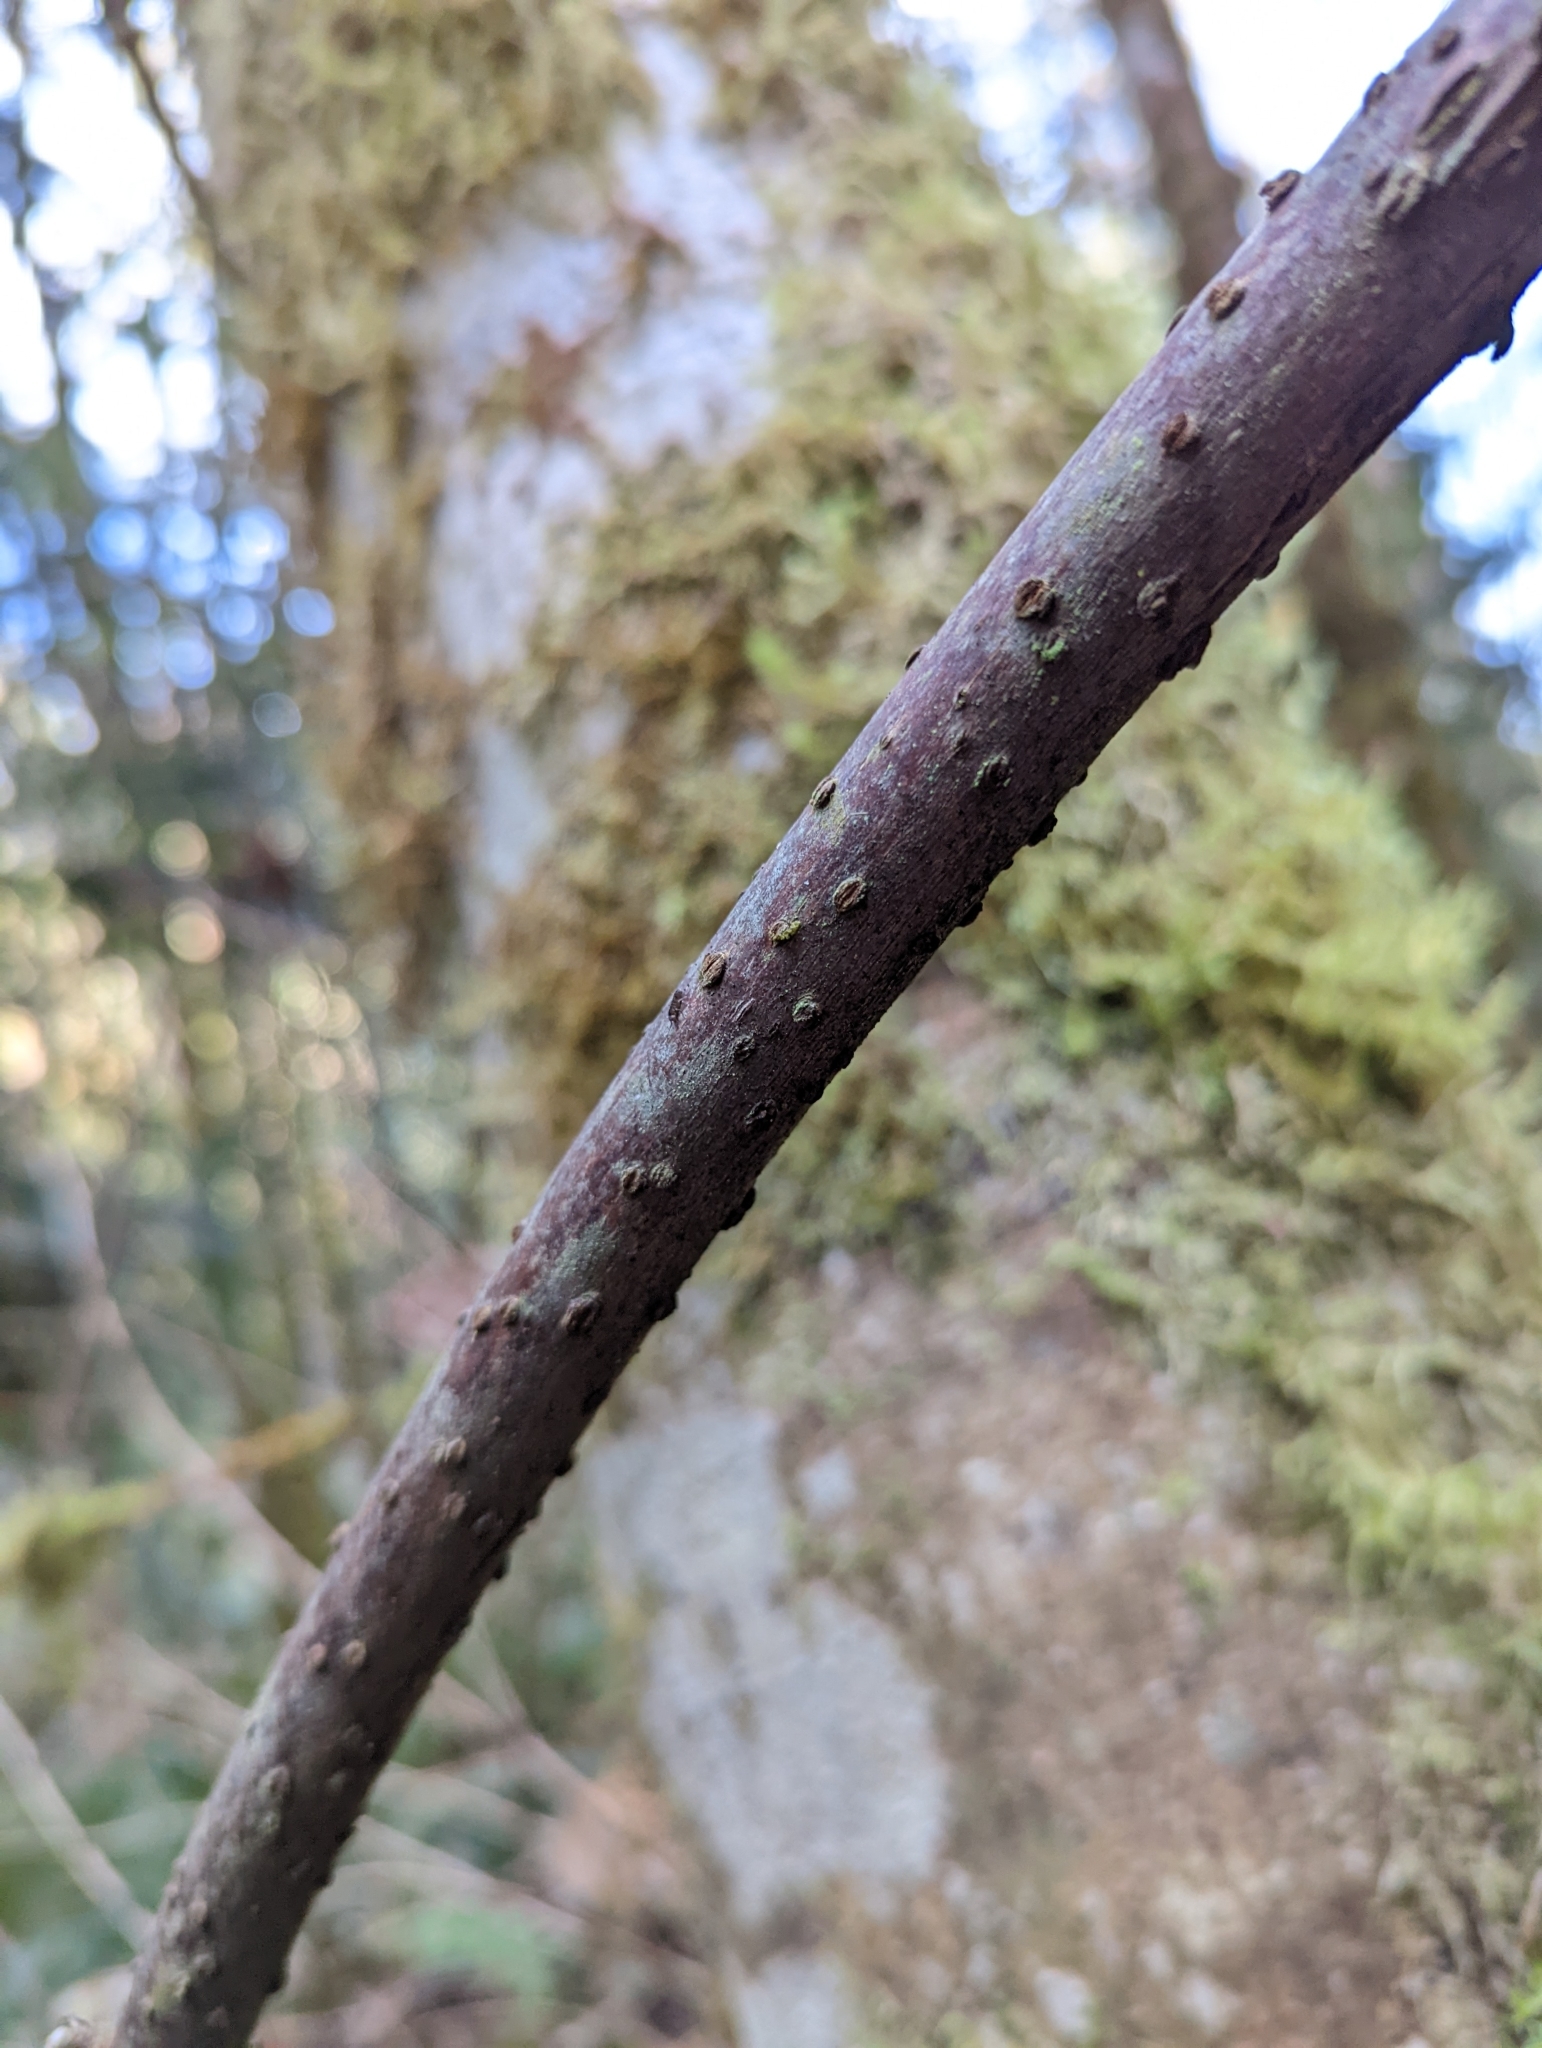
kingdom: Plantae
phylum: Tracheophyta
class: Magnoliopsida
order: Dipsacales
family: Viburnaceae
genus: Sambucus
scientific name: Sambucus racemosa
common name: Red-berried elder
